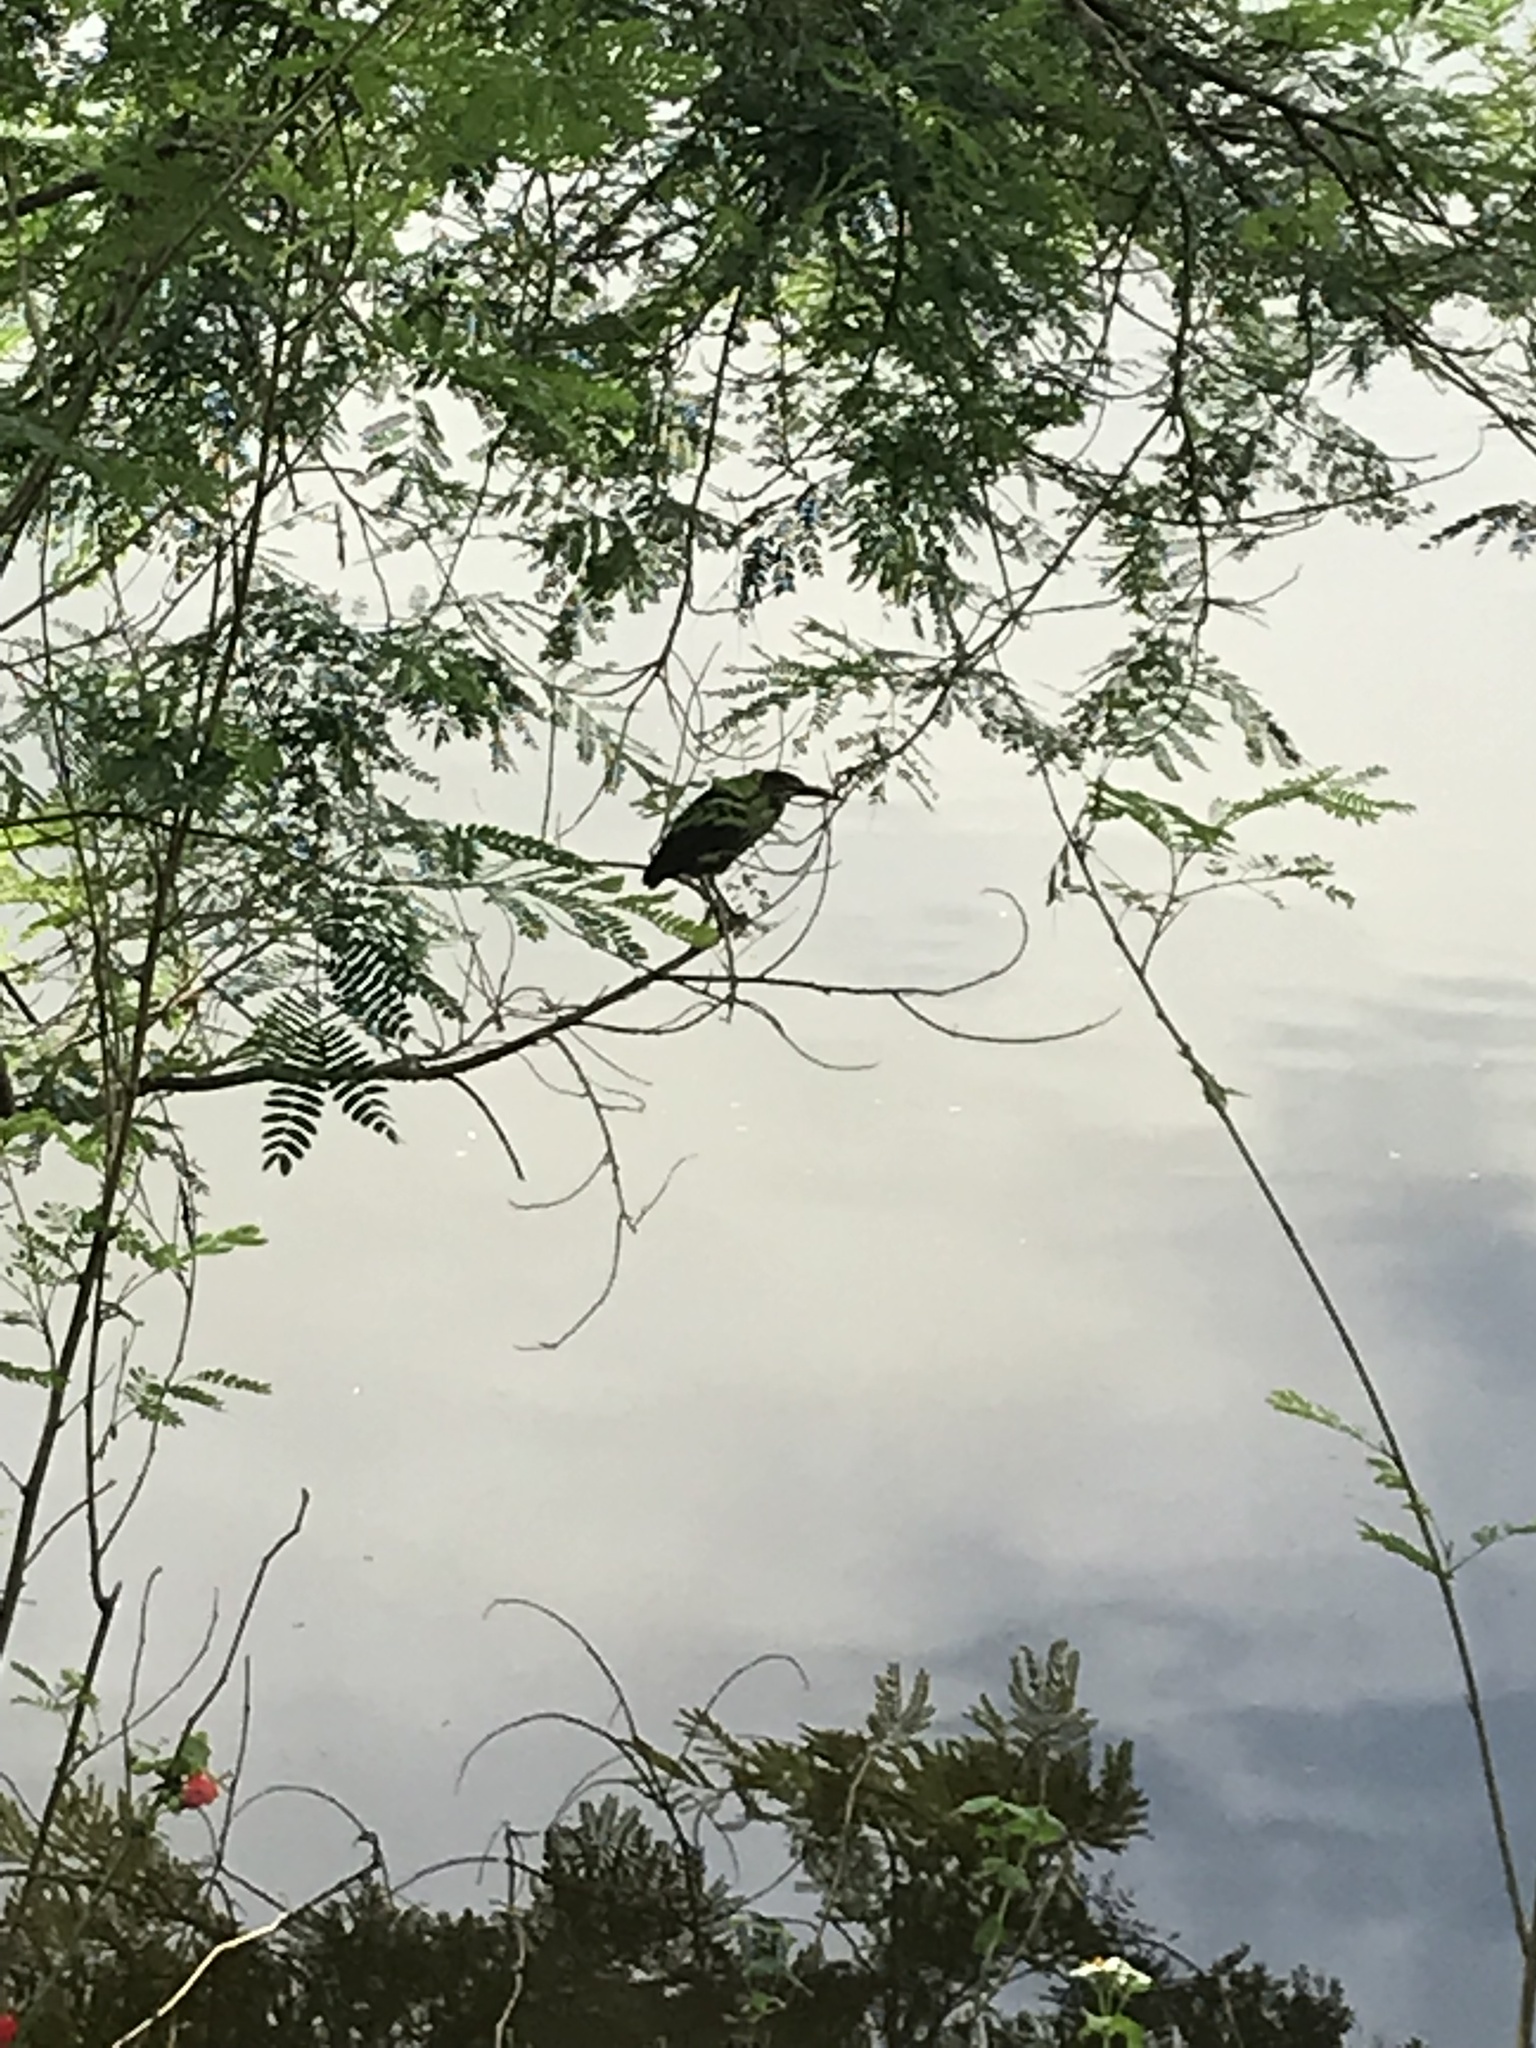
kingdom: Animalia
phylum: Chordata
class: Aves
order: Pelecaniformes
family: Ardeidae
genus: Butorides
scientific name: Butorides virescens
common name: Green heron
